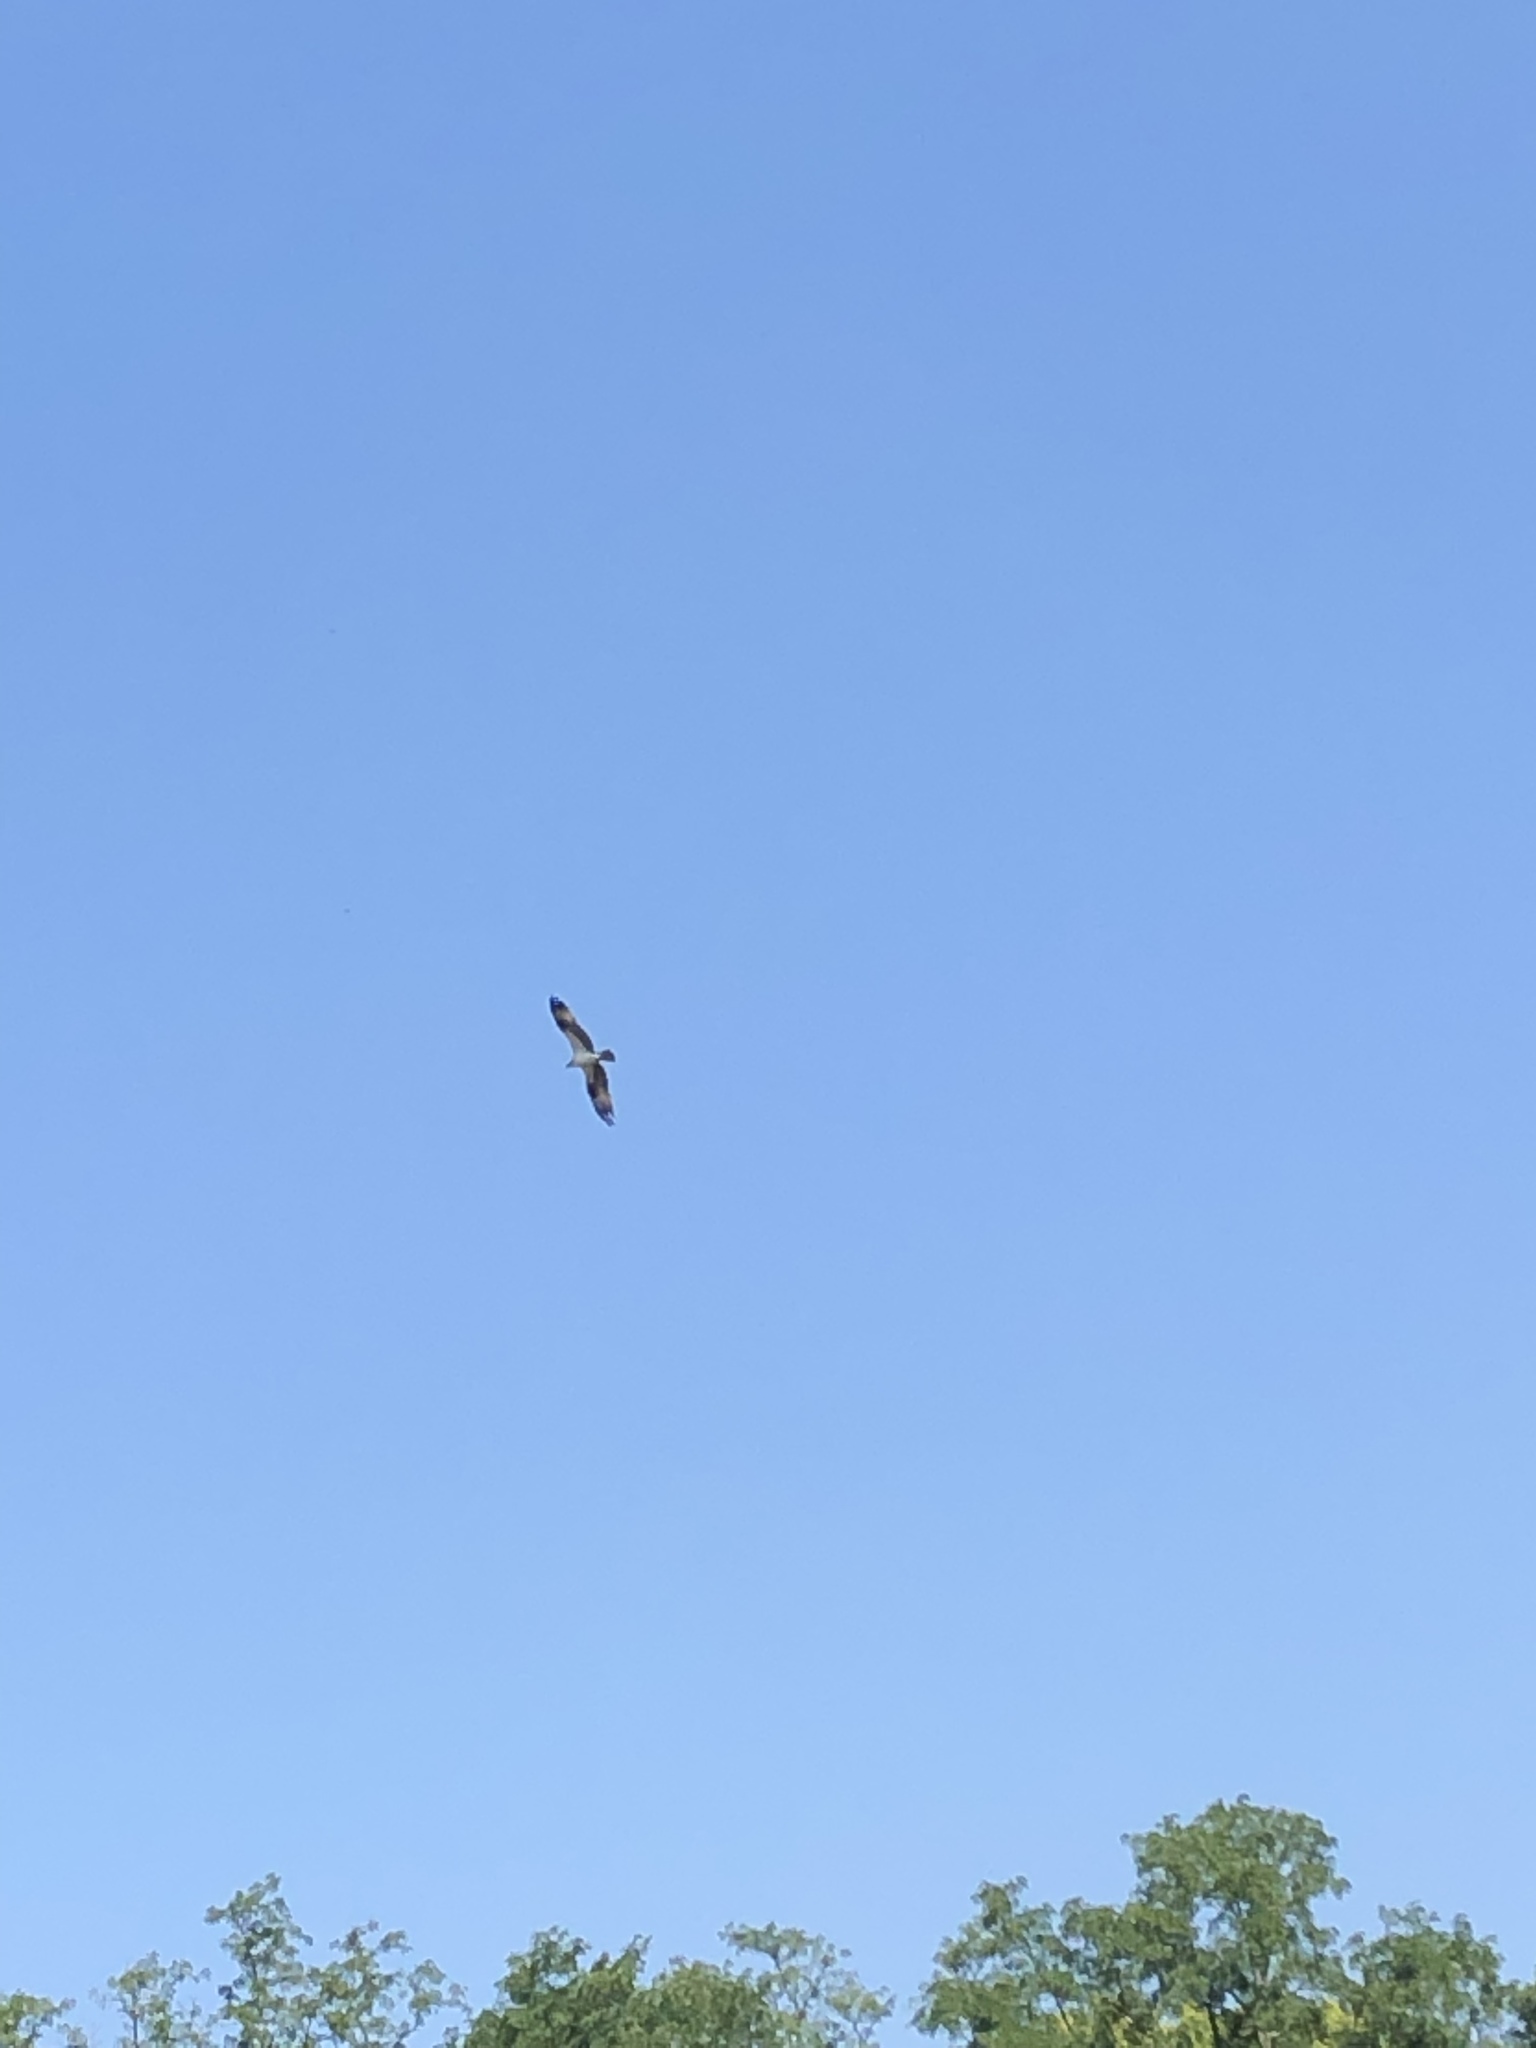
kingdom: Animalia
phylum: Chordata
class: Aves
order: Accipitriformes
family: Pandionidae
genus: Pandion
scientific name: Pandion haliaetus
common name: Osprey
